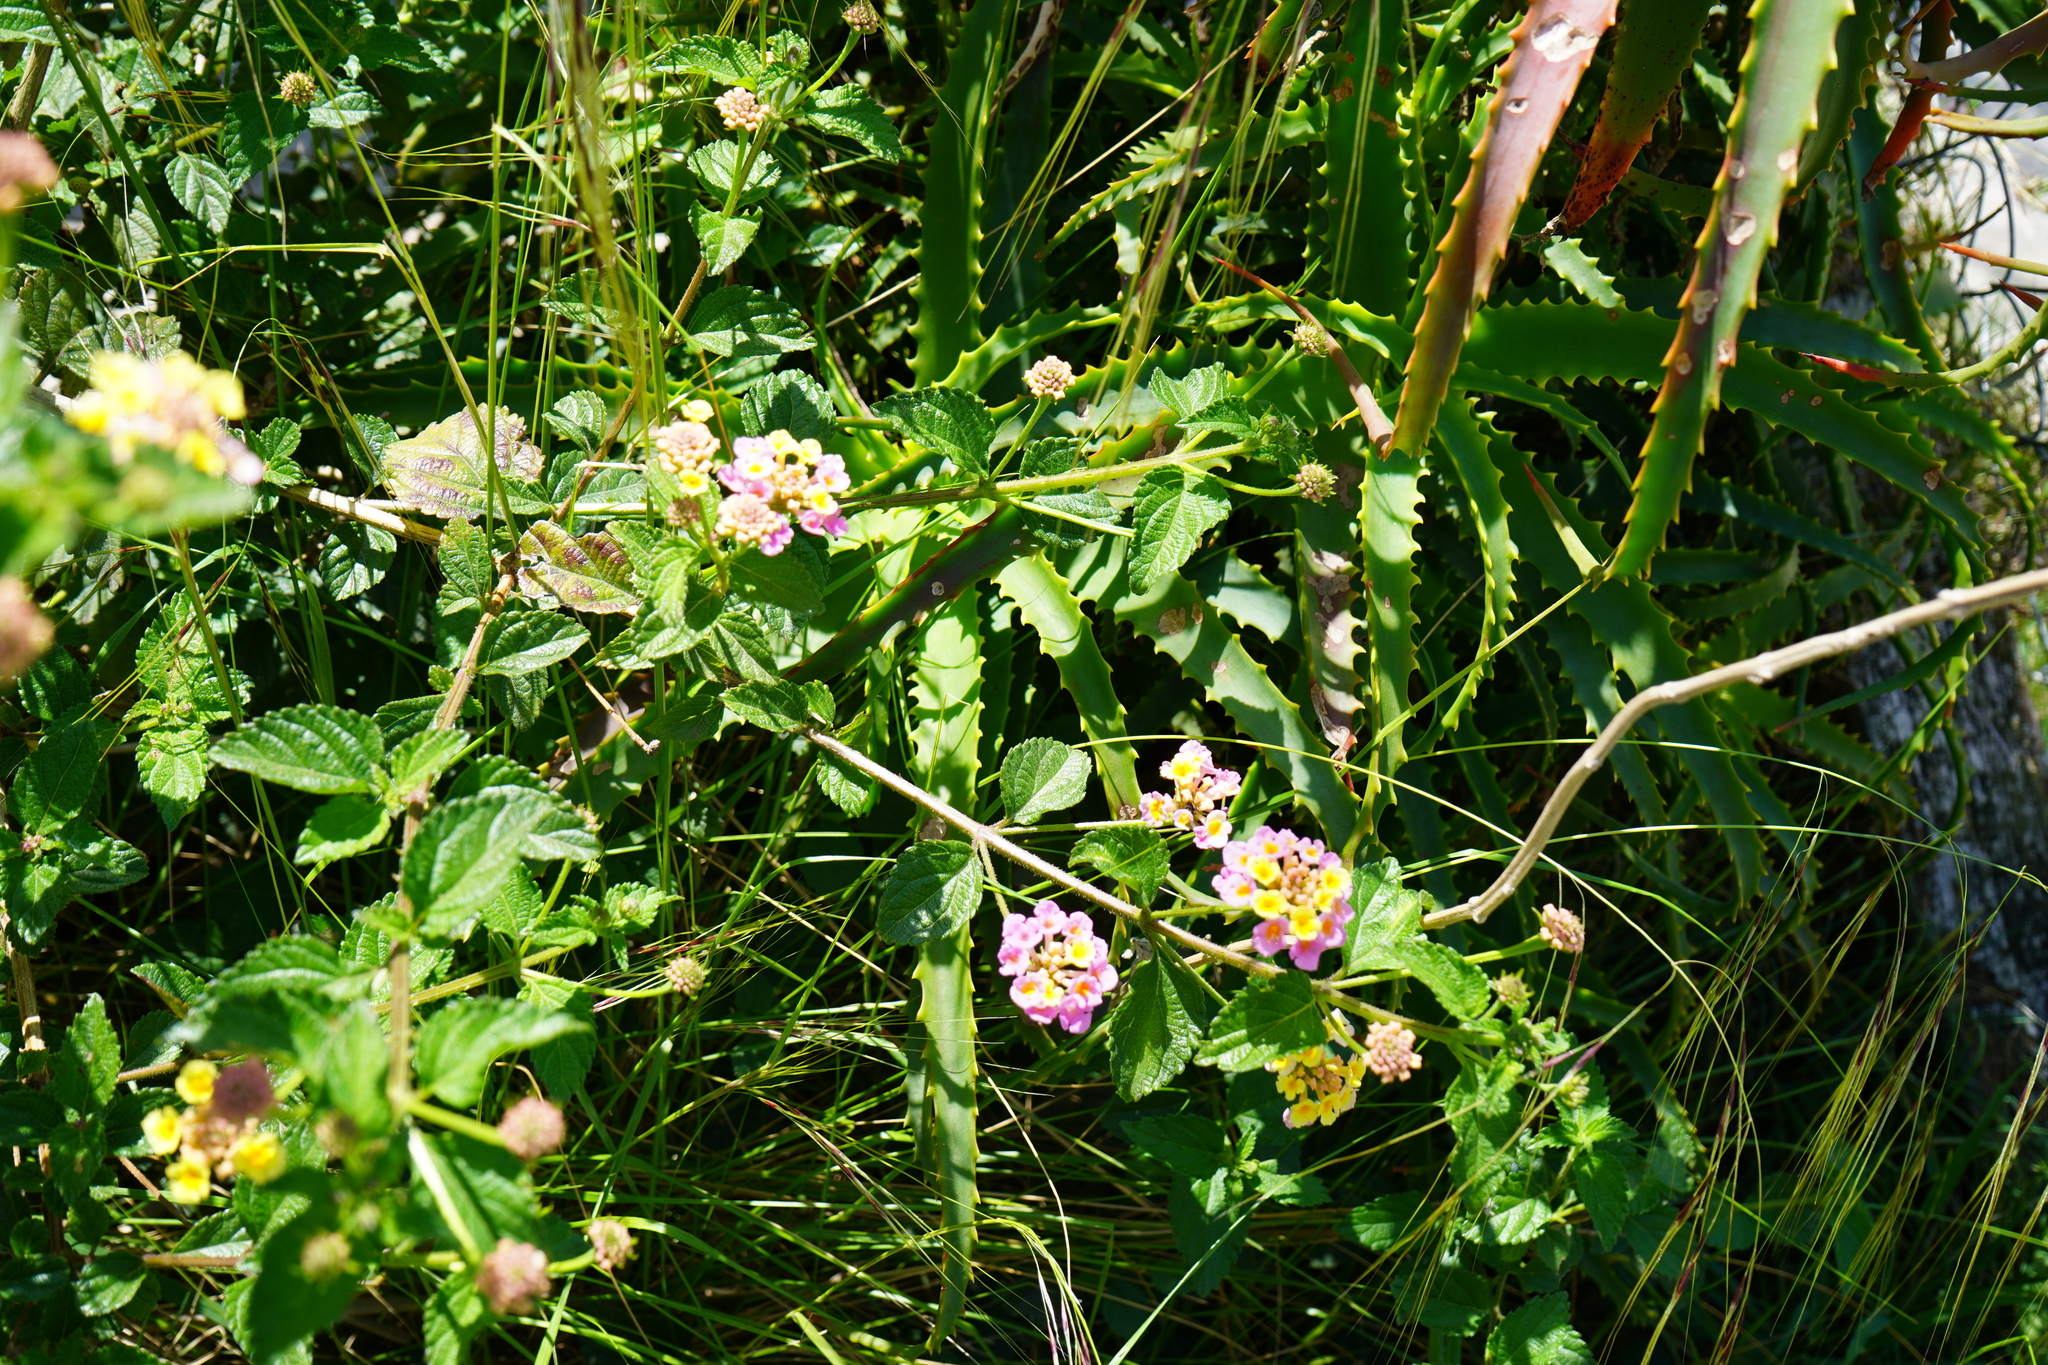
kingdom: Plantae
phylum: Tracheophyta
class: Magnoliopsida
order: Lamiales
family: Verbenaceae
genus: Lantana
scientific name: Lantana camara
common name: Lantana
